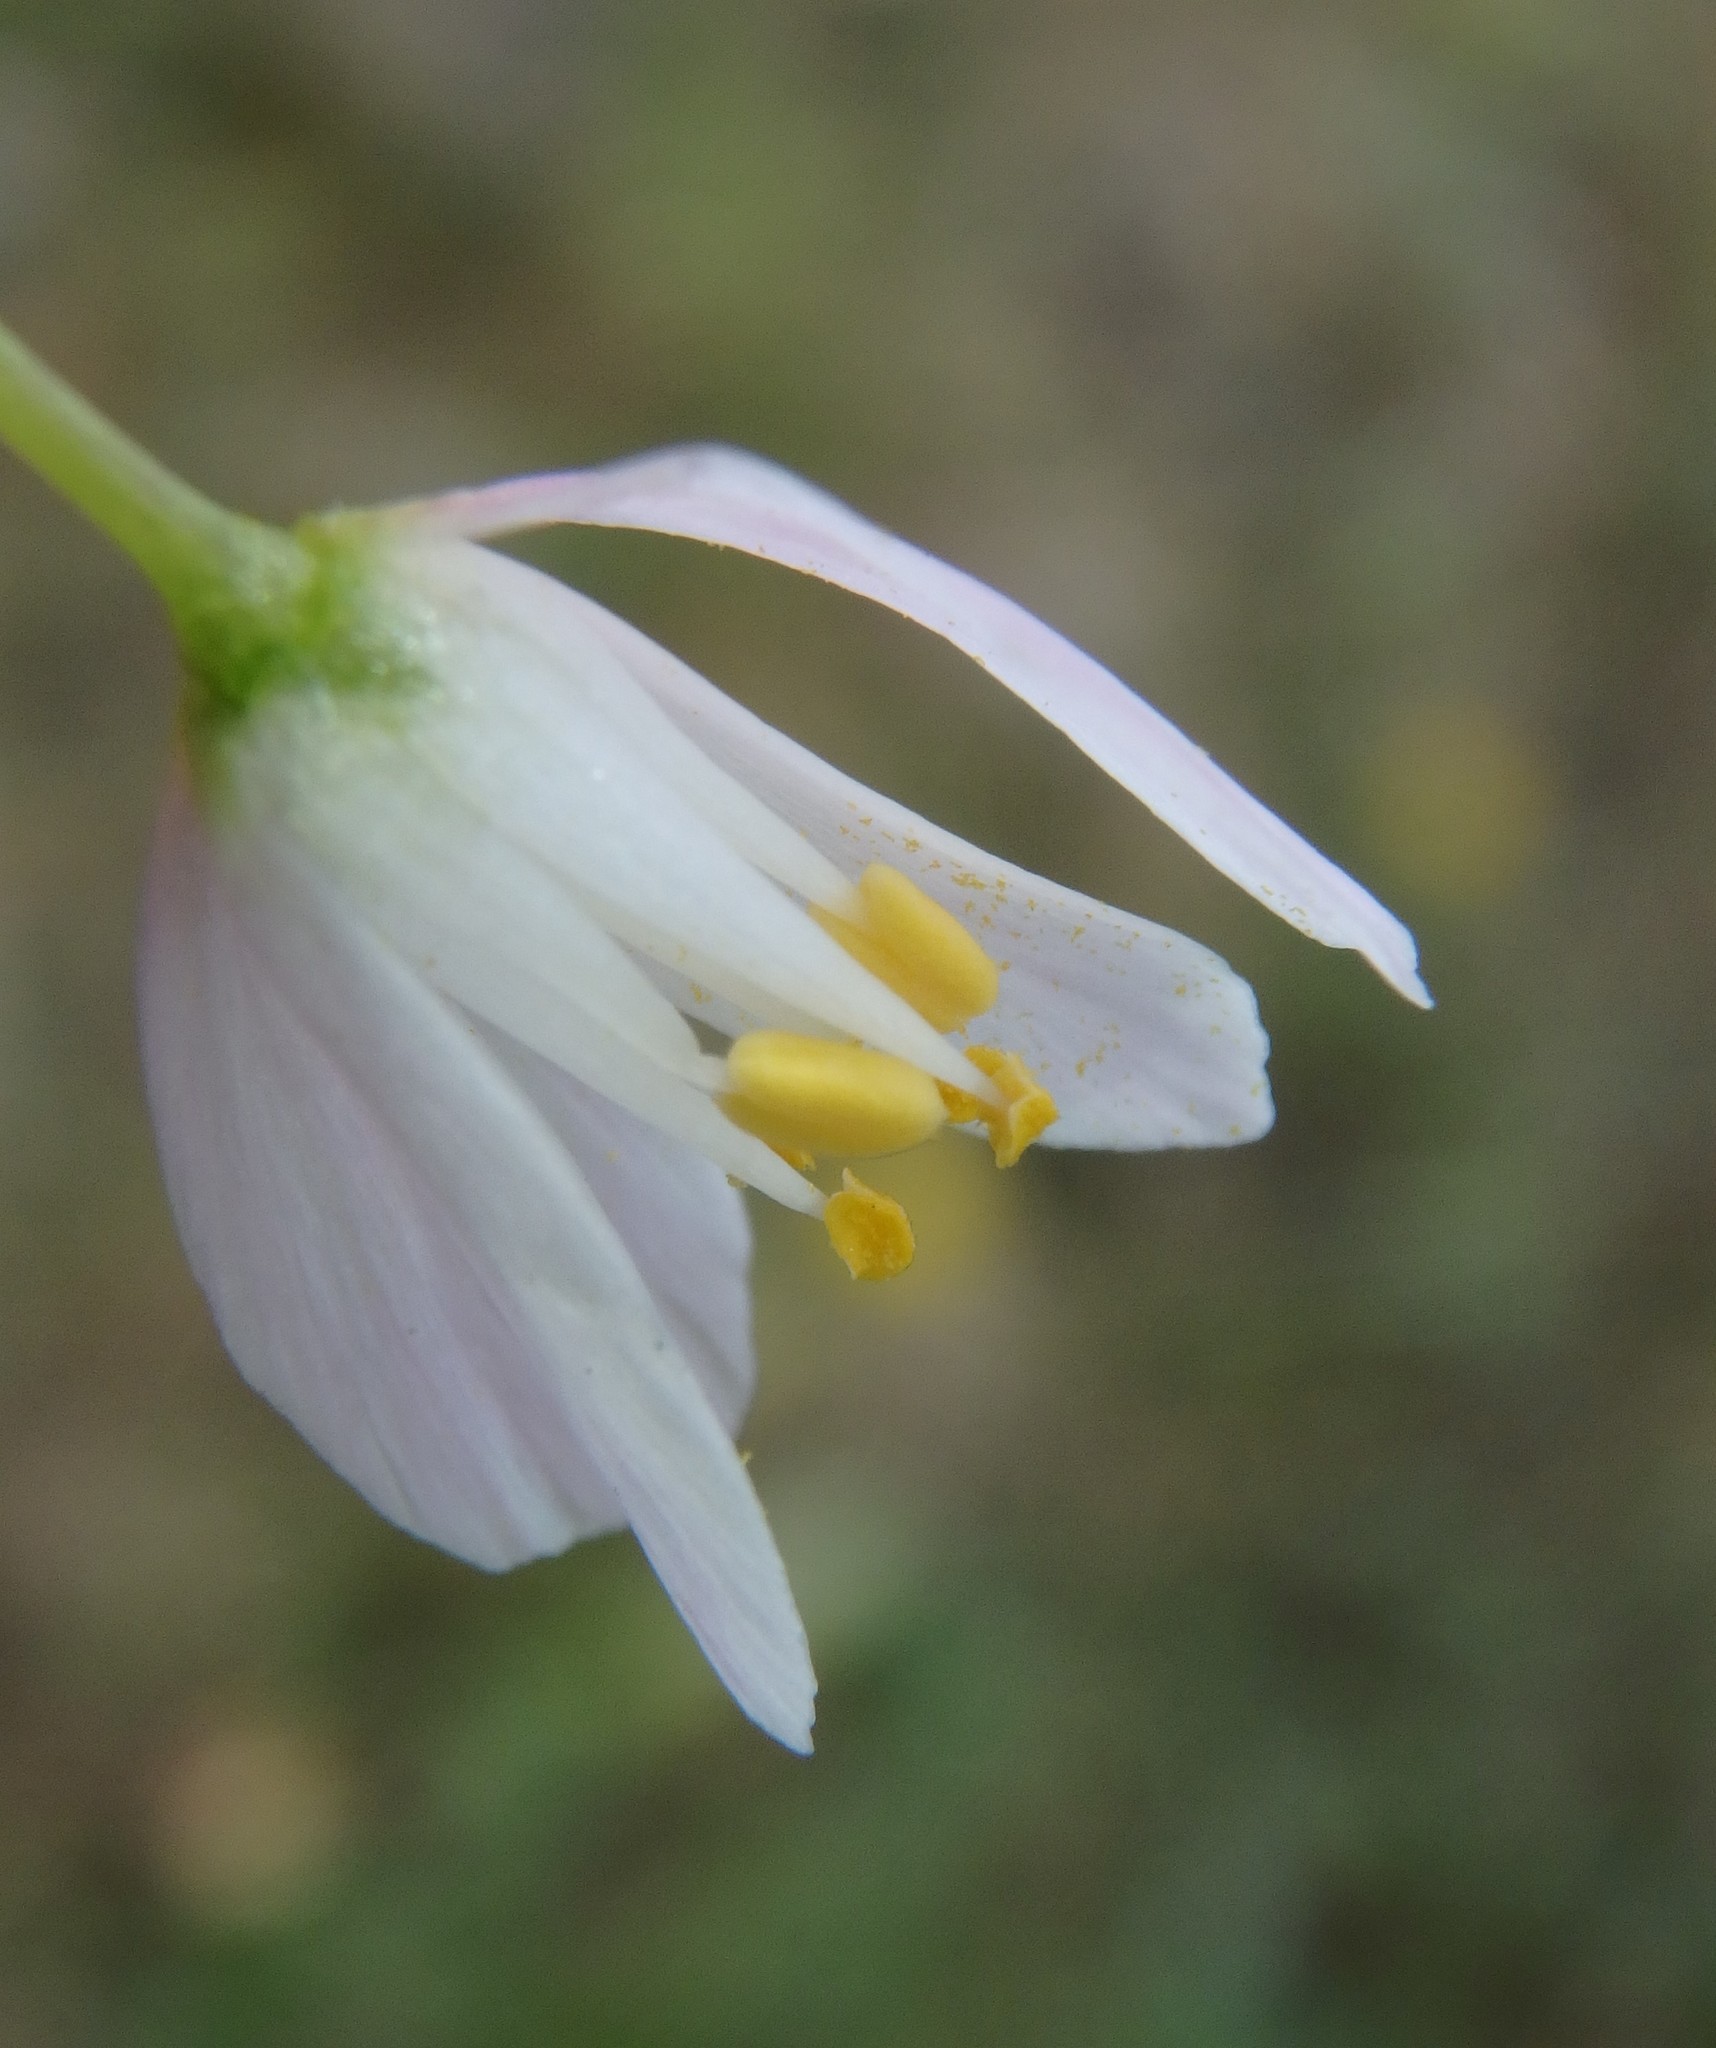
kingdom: Plantae
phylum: Tracheophyta
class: Liliopsida
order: Asparagales
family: Amaryllidaceae
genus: Allium
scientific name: Allium roseum
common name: Rosy garlic
